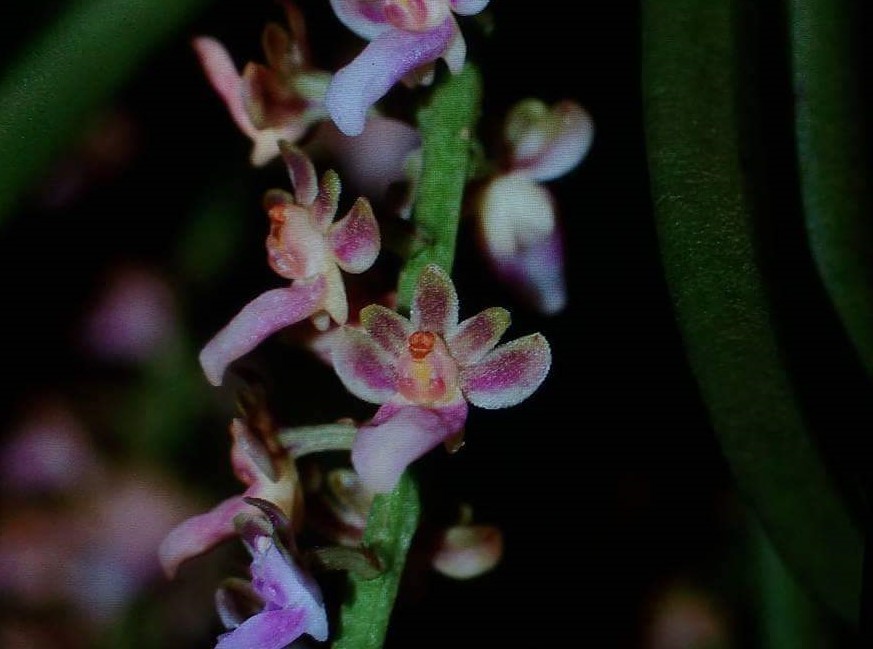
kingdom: Plantae
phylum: Tracheophyta
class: Liliopsida
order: Asparagales
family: Orchidaceae
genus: Diplocentrum
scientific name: Diplocentrum recurvum
